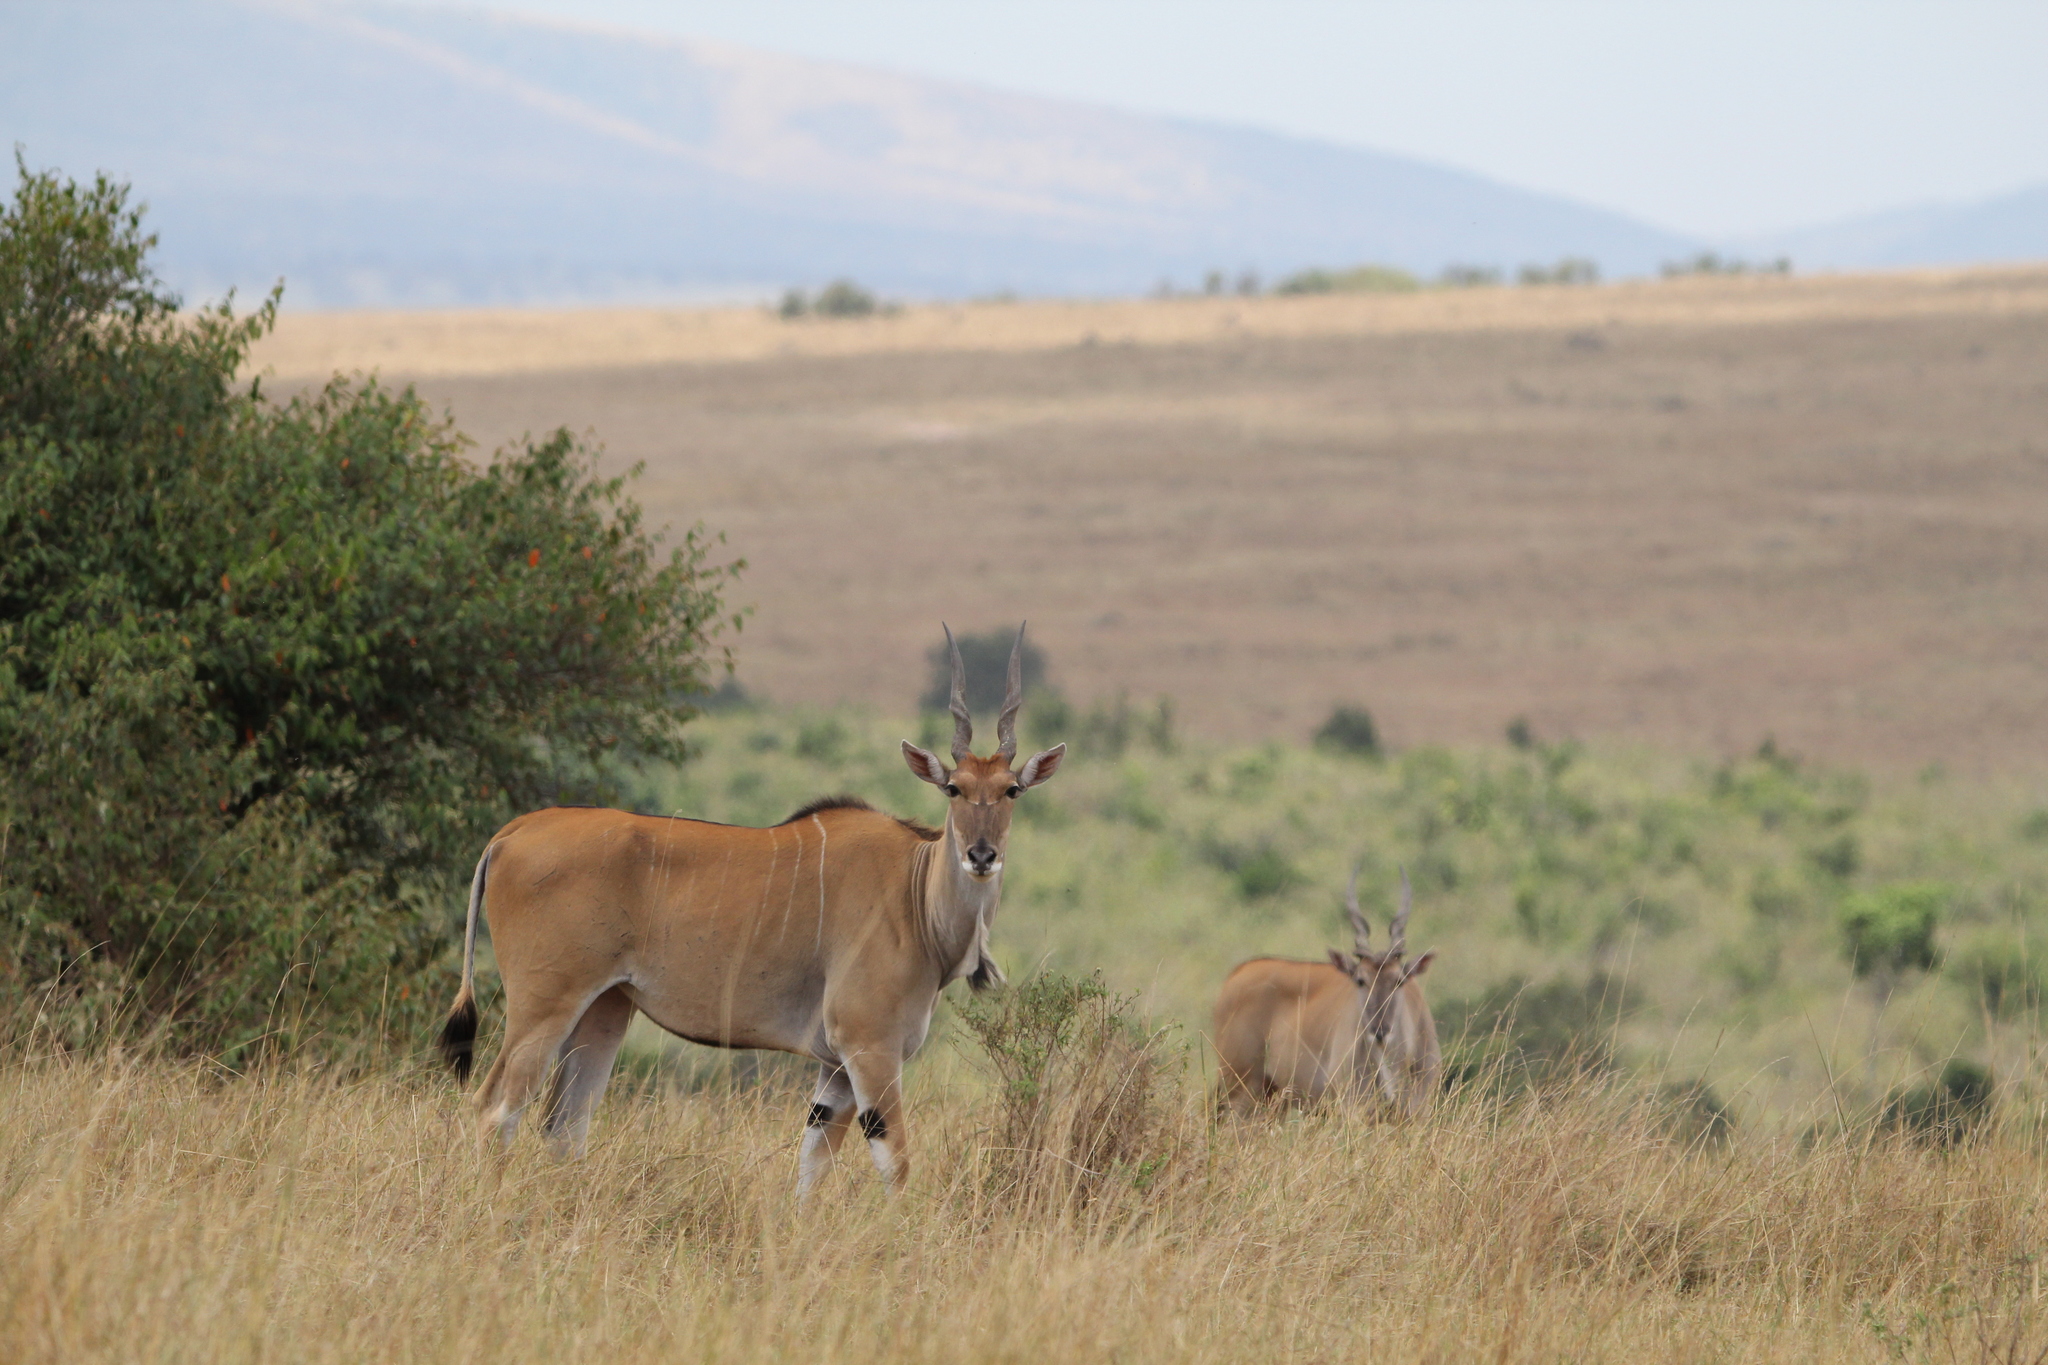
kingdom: Animalia
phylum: Chordata
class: Mammalia
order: Artiodactyla
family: Bovidae
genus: Taurotragus
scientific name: Taurotragus oryx
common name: Common eland
